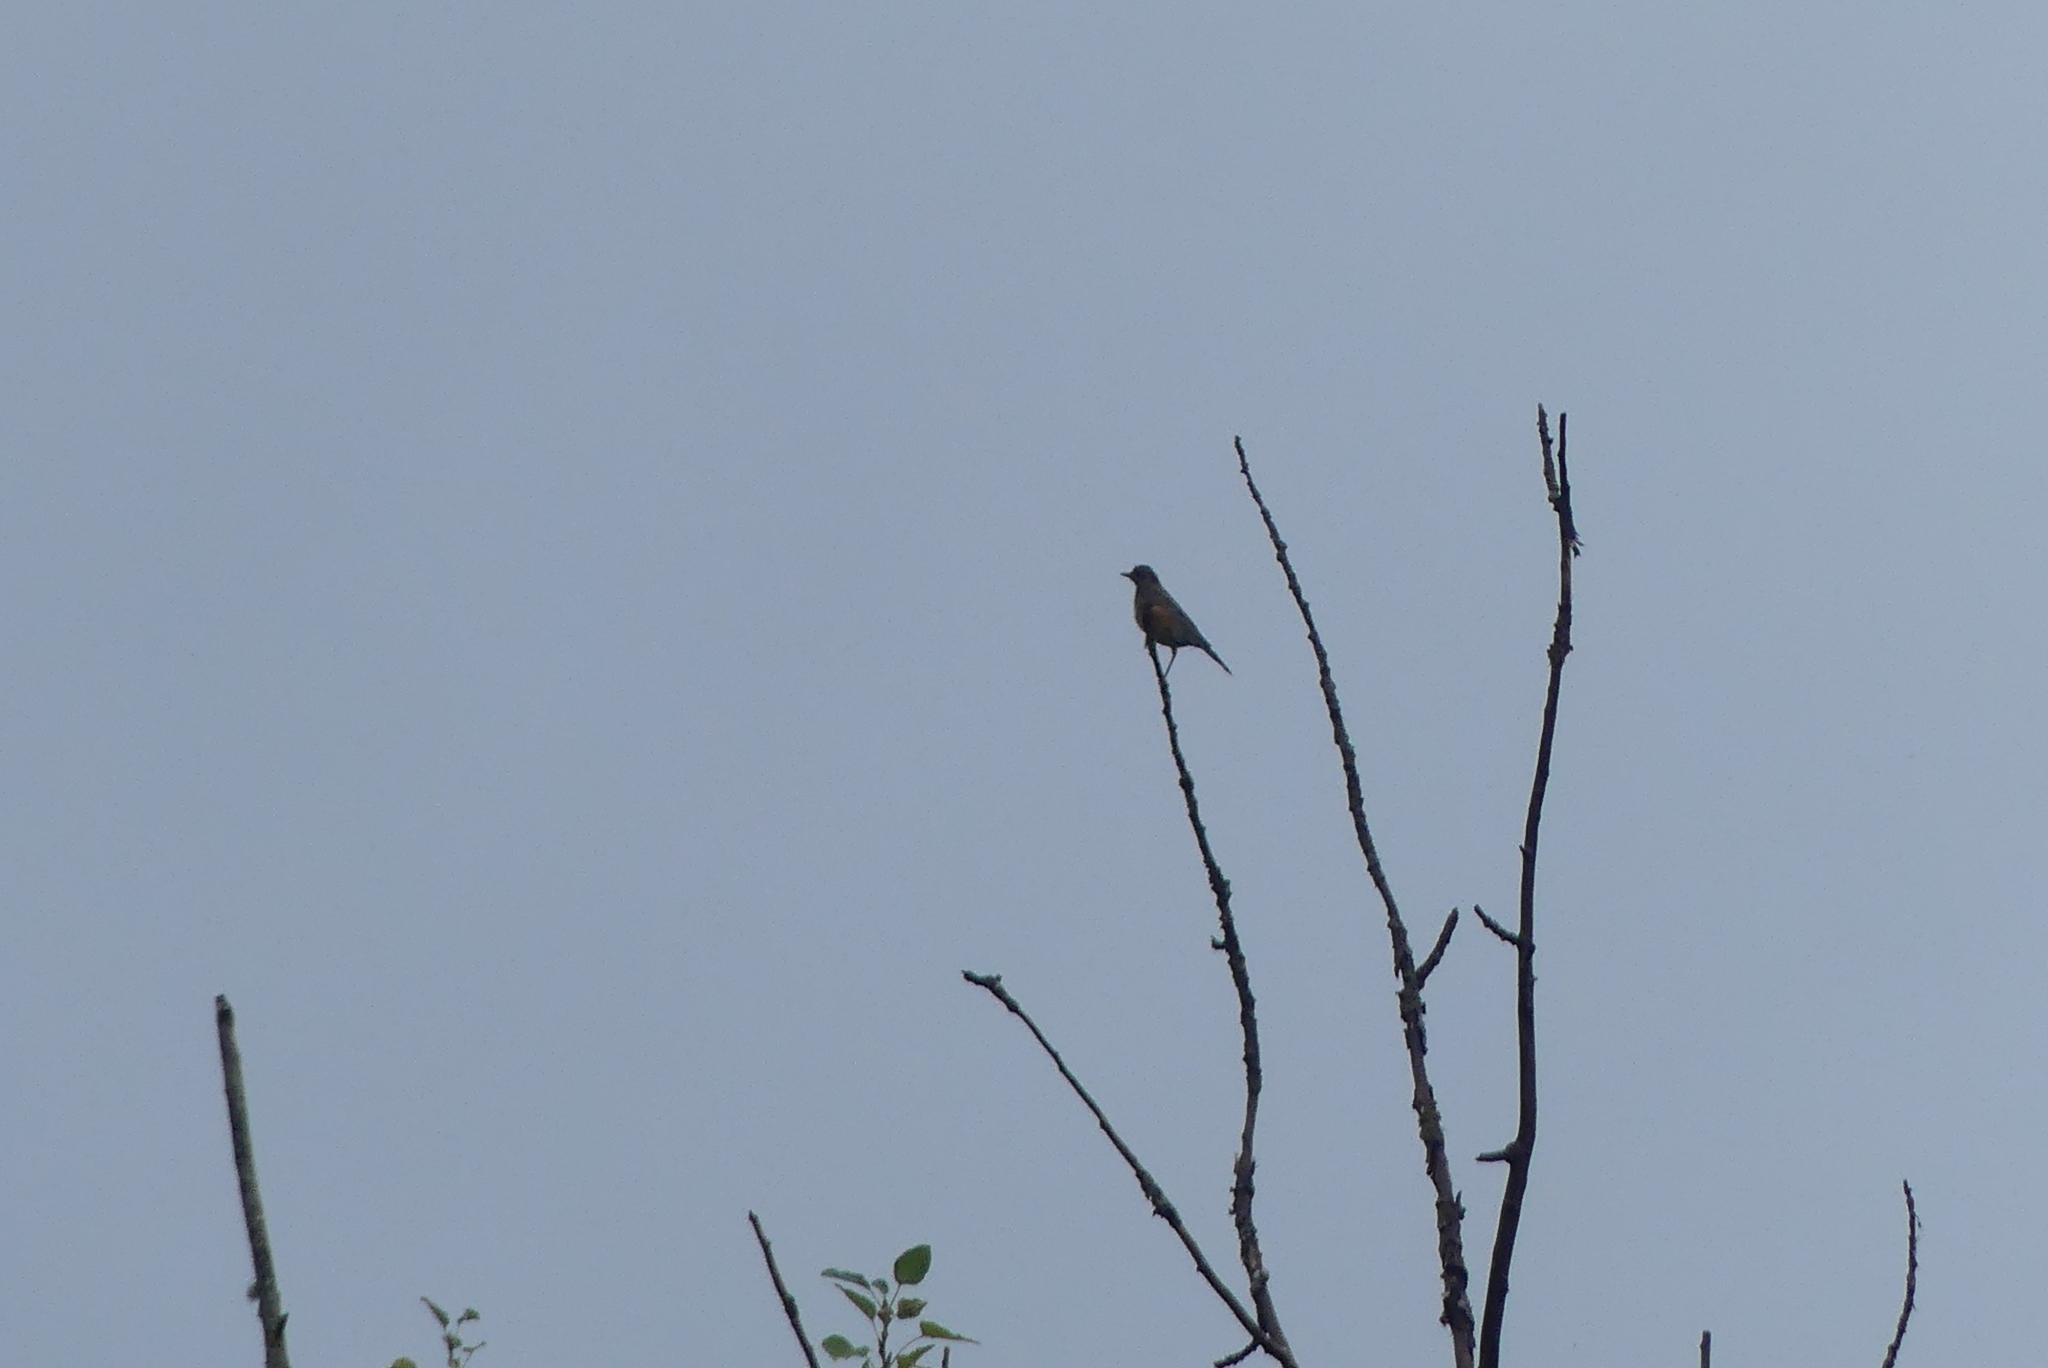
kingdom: Animalia
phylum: Chordata
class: Aves
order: Passeriformes
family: Turdidae
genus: Turdus
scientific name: Turdus migratorius
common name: American robin
